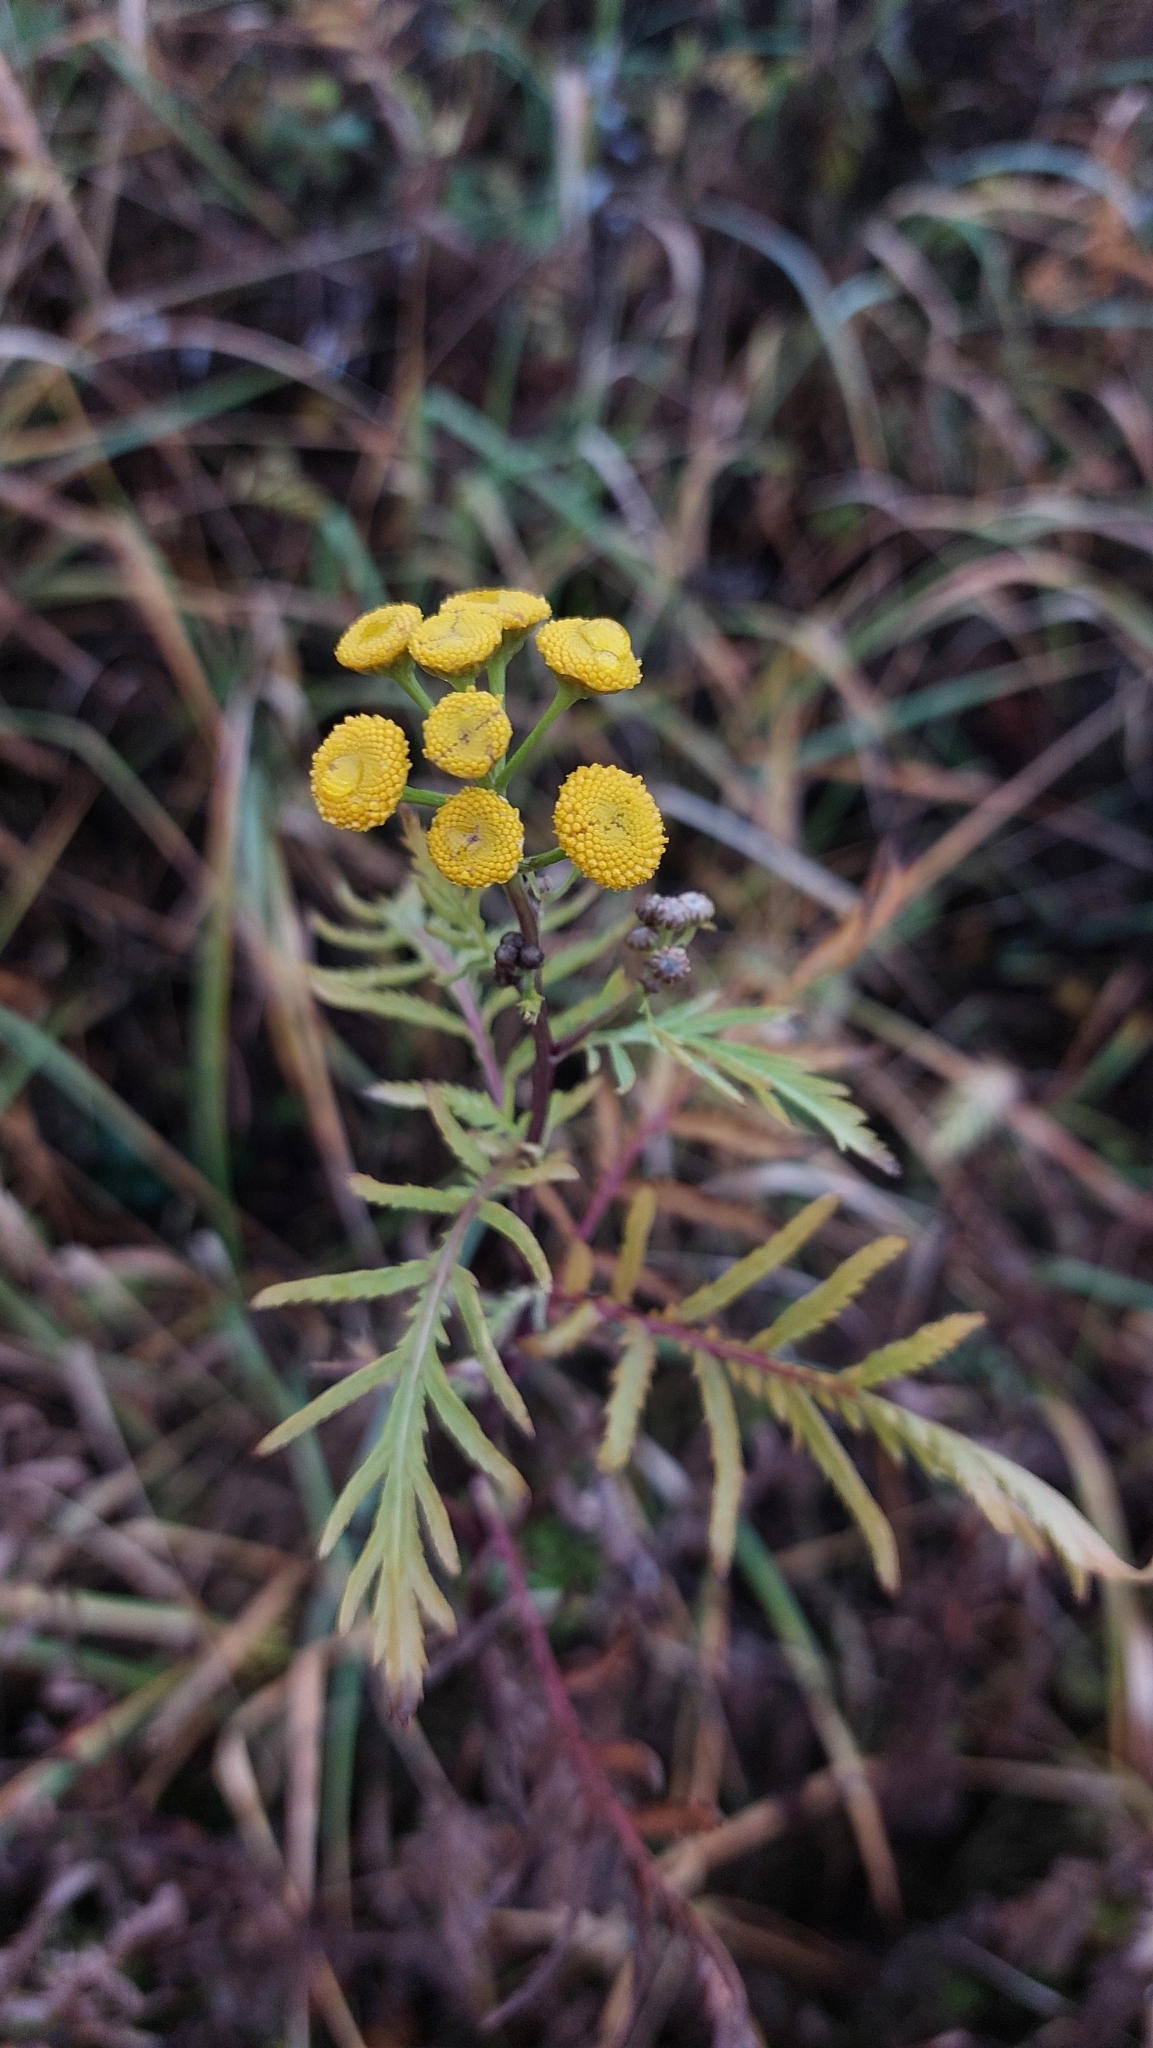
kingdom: Plantae
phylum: Tracheophyta
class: Magnoliopsida
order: Asterales
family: Asteraceae
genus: Tanacetum
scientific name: Tanacetum vulgare
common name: Common tansy
